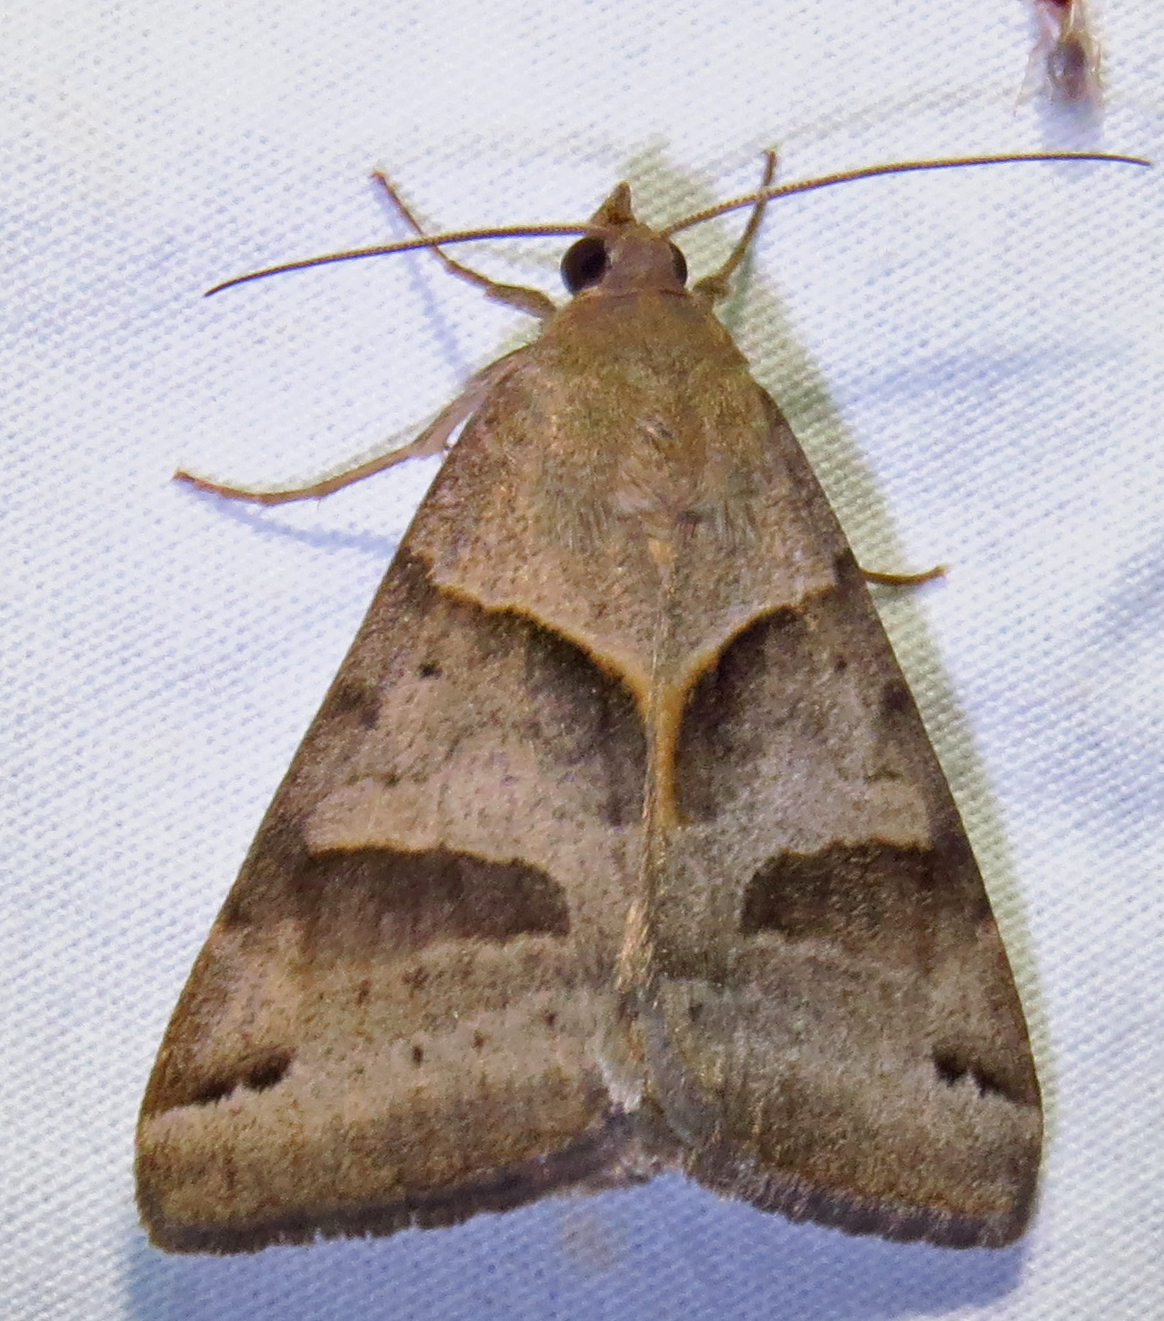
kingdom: Animalia
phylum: Arthropoda
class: Insecta
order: Lepidoptera
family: Erebidae
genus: Caenurgina
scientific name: Caenurgina erechtea
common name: Forage looper moth
